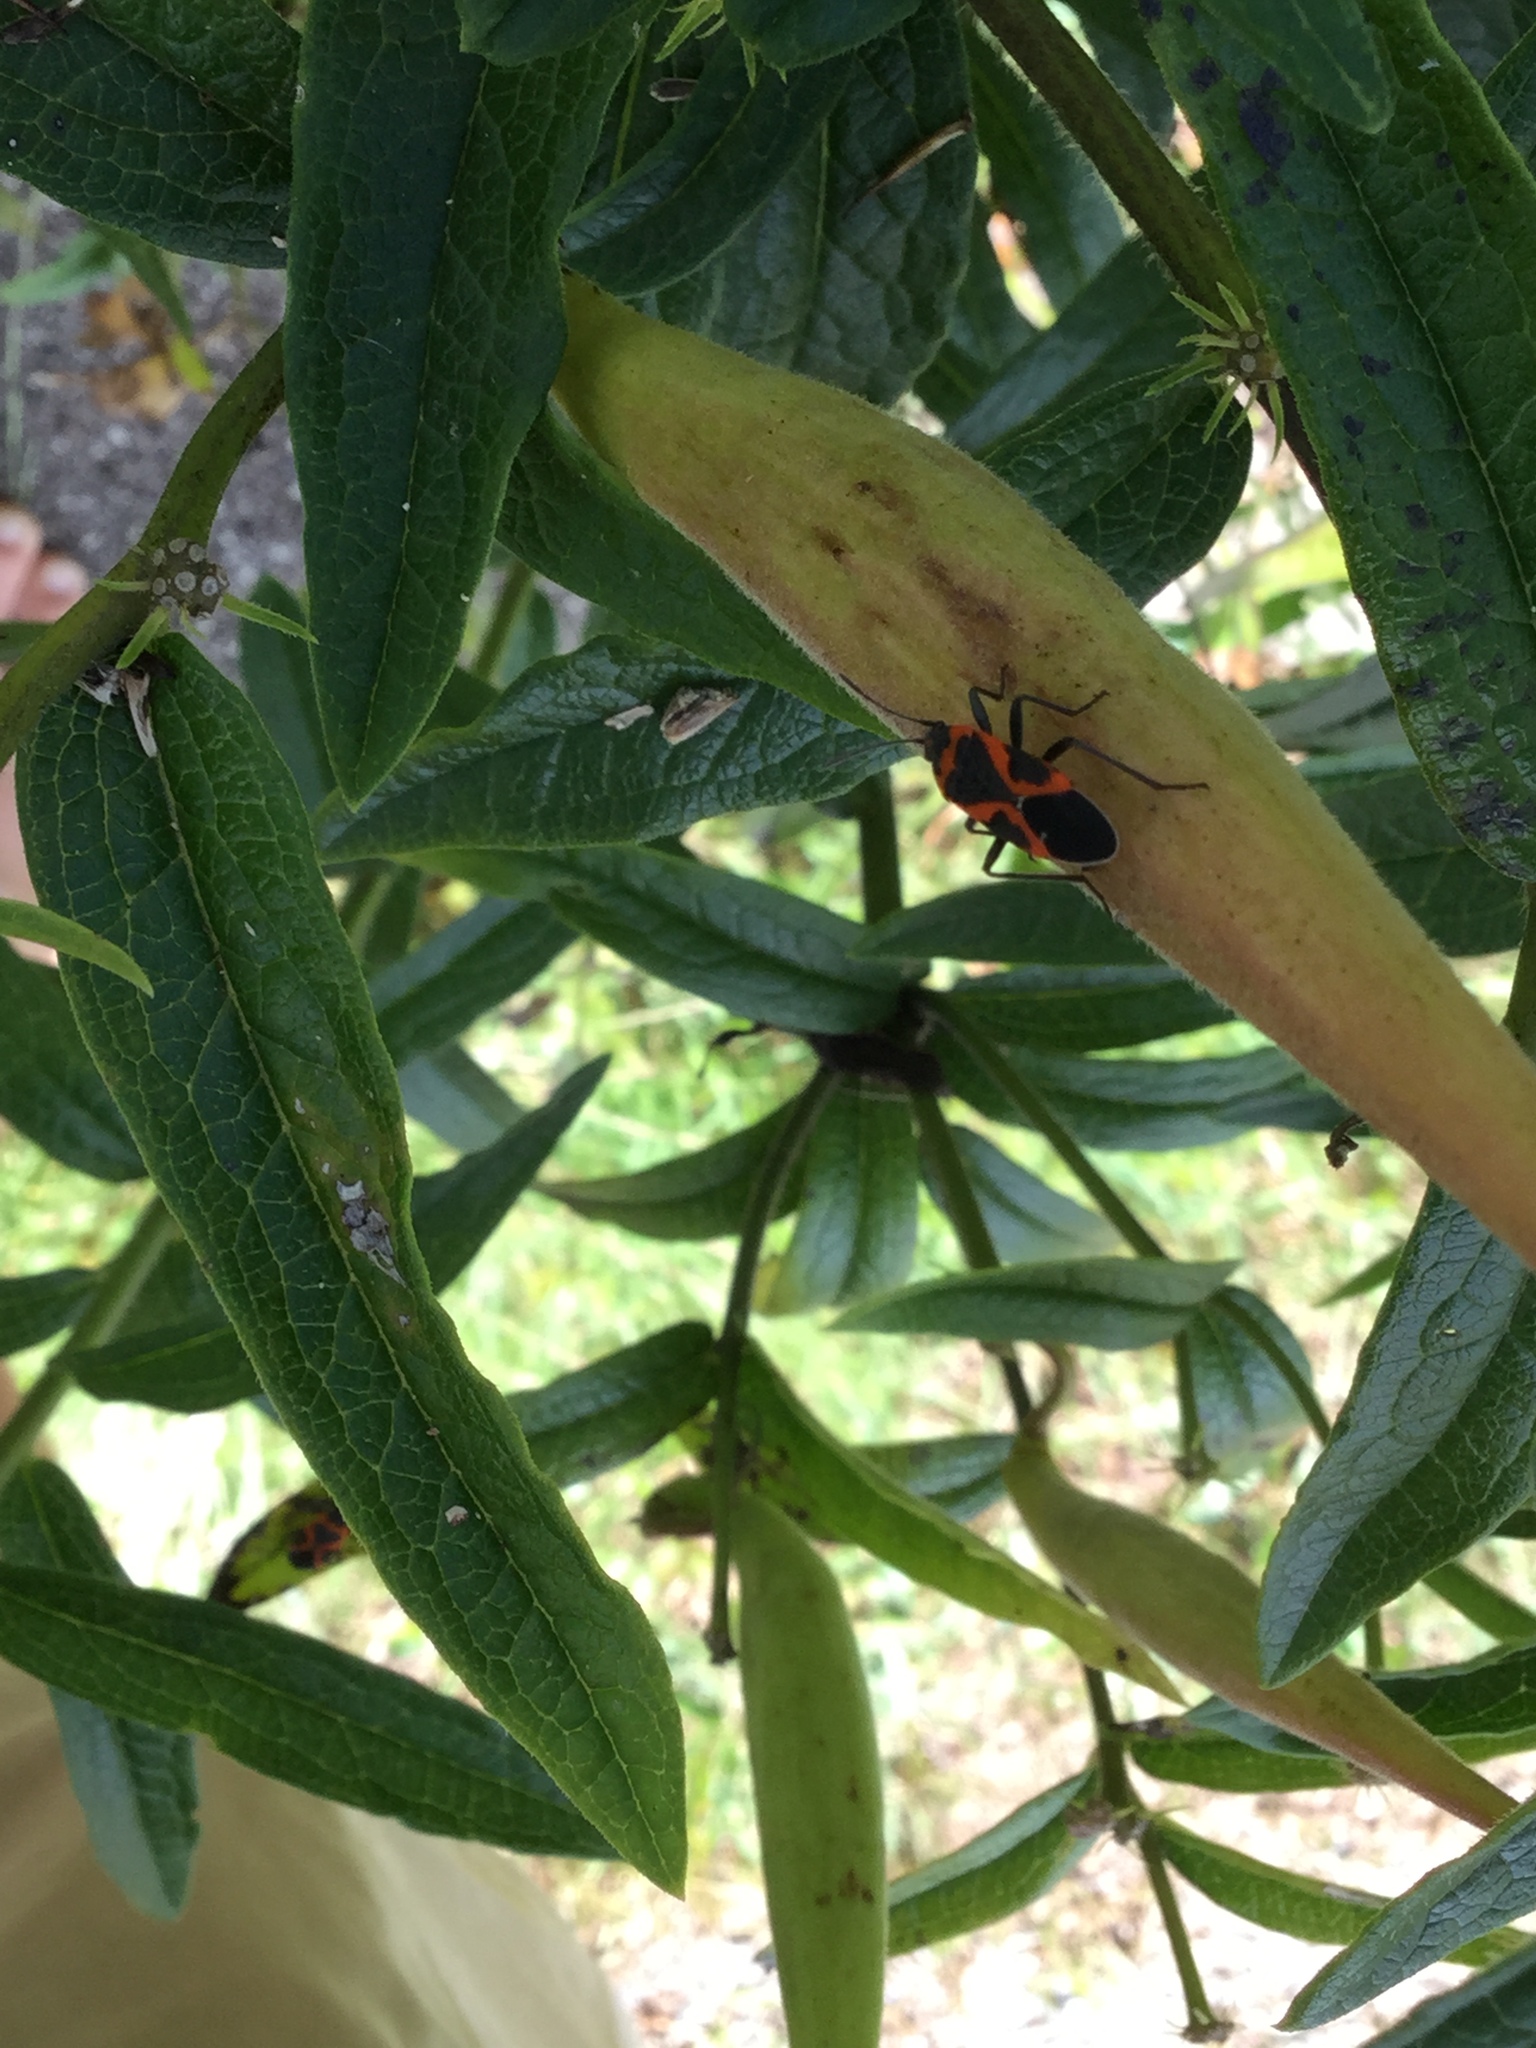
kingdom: Animalia
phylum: Arthropoda
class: Insecta
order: Hemiptera
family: Lygaeidae
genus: Lygaeus
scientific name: Lygaeus kalmii
